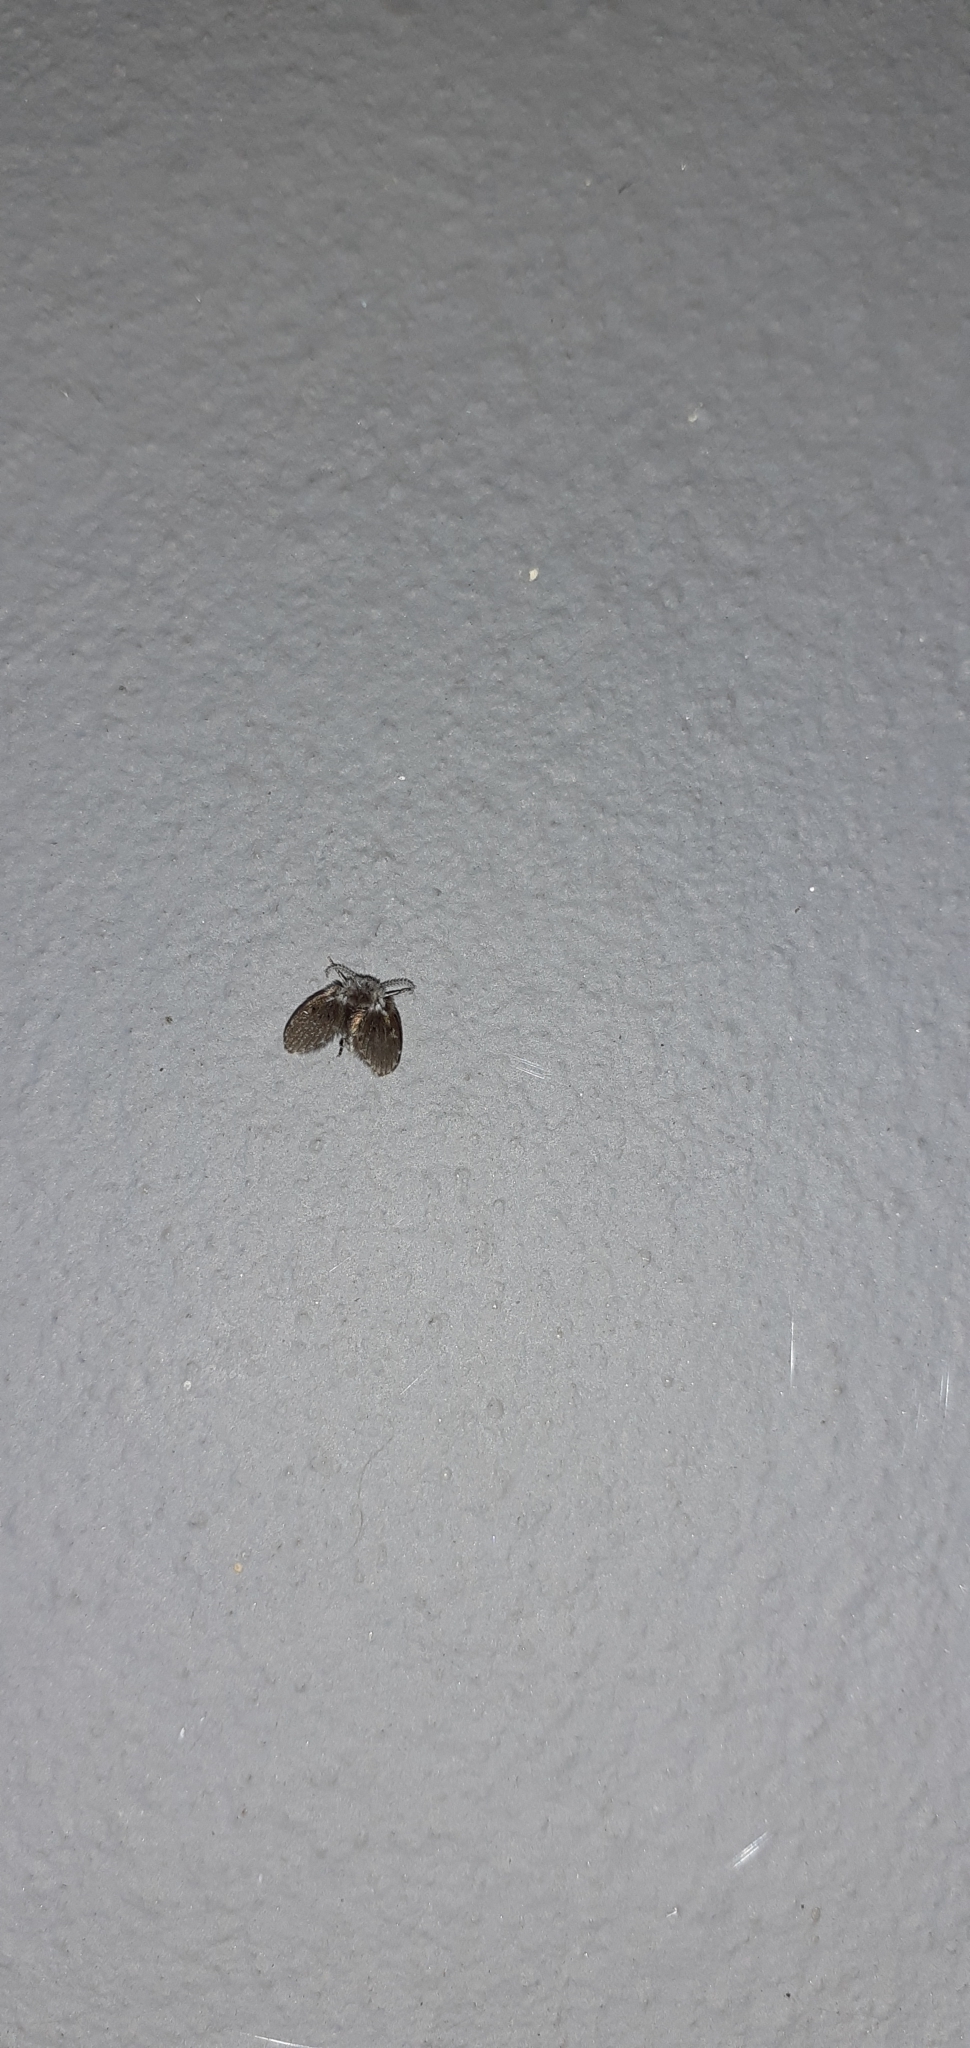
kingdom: Animalia
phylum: Arthropoda
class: Insecta
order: Diptera
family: Psychodidae
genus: Clogmia
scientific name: Clogmia albipunctatus
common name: White-spotted moth fly
